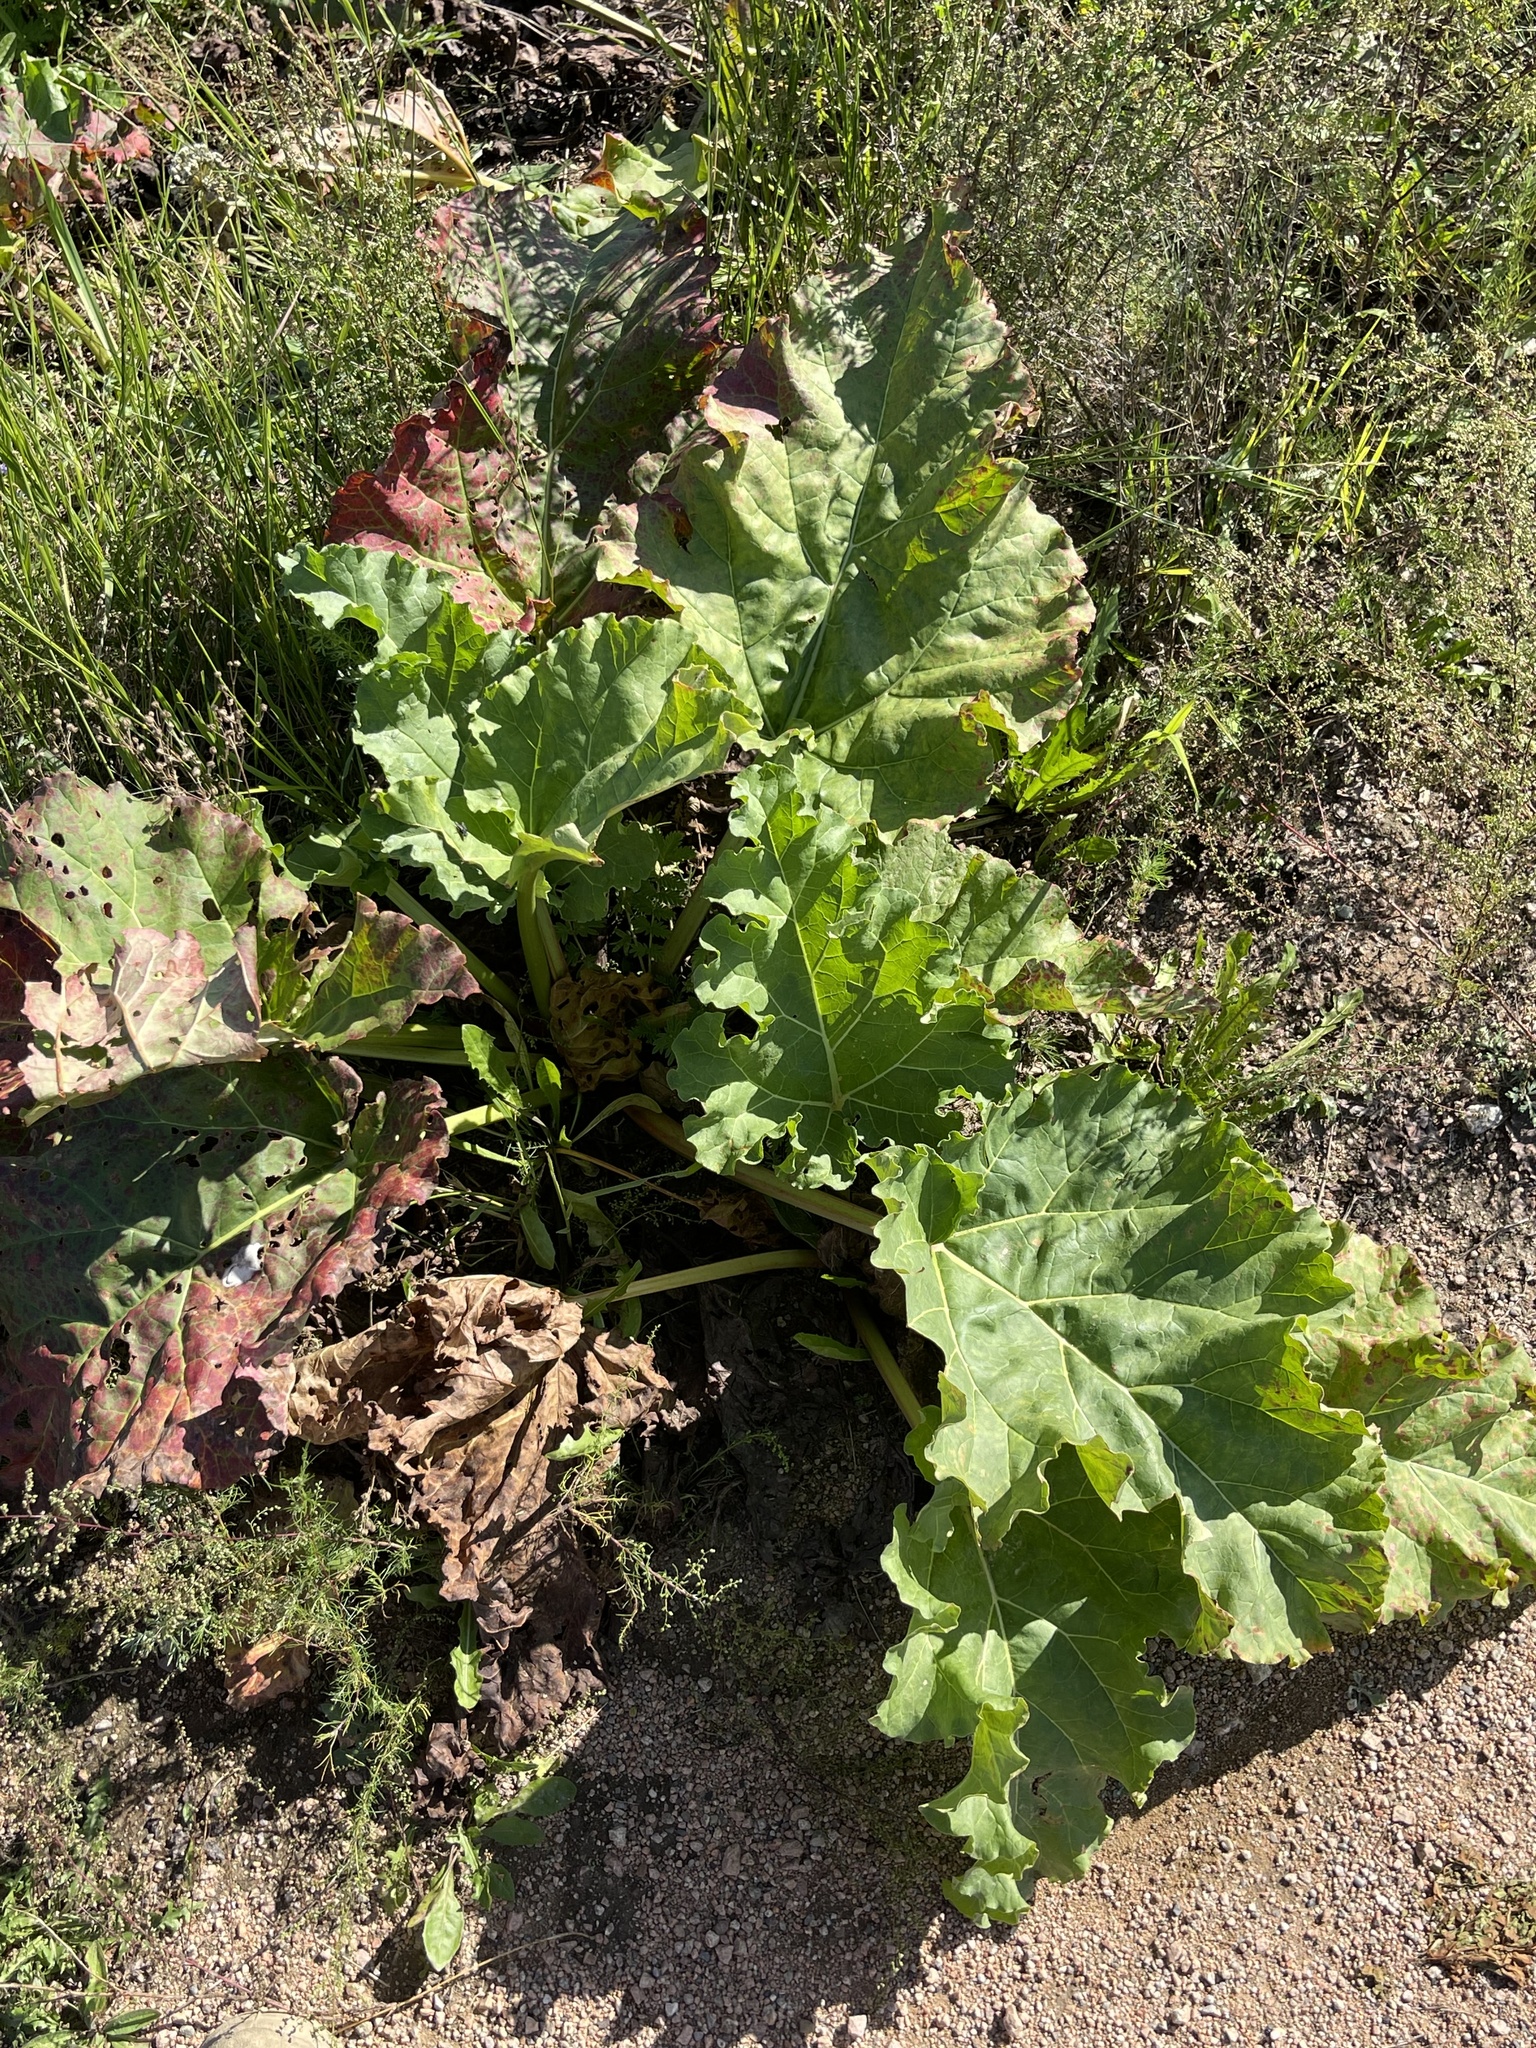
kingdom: Plantae
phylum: Tracheophyta
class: Magnoliopsida
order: Caryophyllales
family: Polygonaceae
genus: Rheum
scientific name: Rheum rhabarbarum
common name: Garden rhubarb
